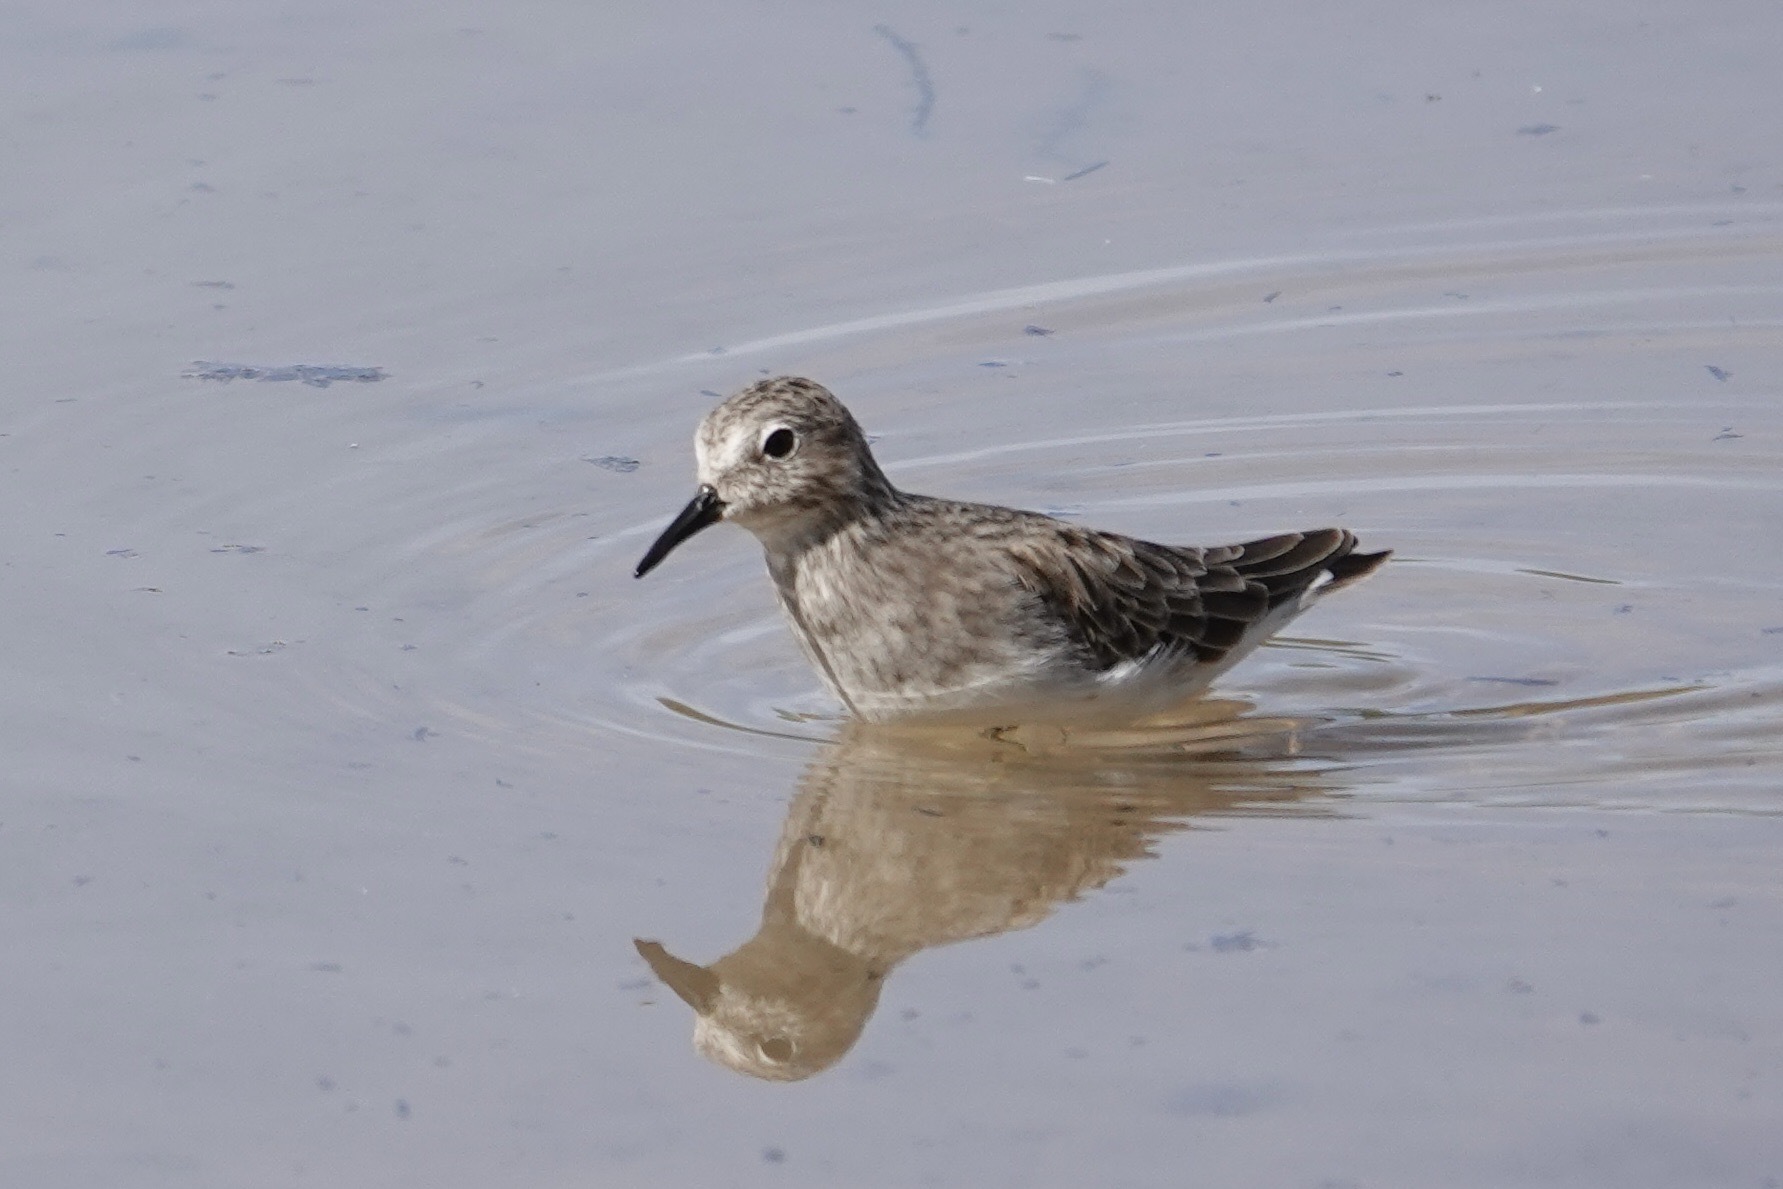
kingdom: Animalia
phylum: Chordata
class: Aves
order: Charadriiformes
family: Scolopacidae
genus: Calidris
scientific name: Calidris minutilla
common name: Least sandpiper
